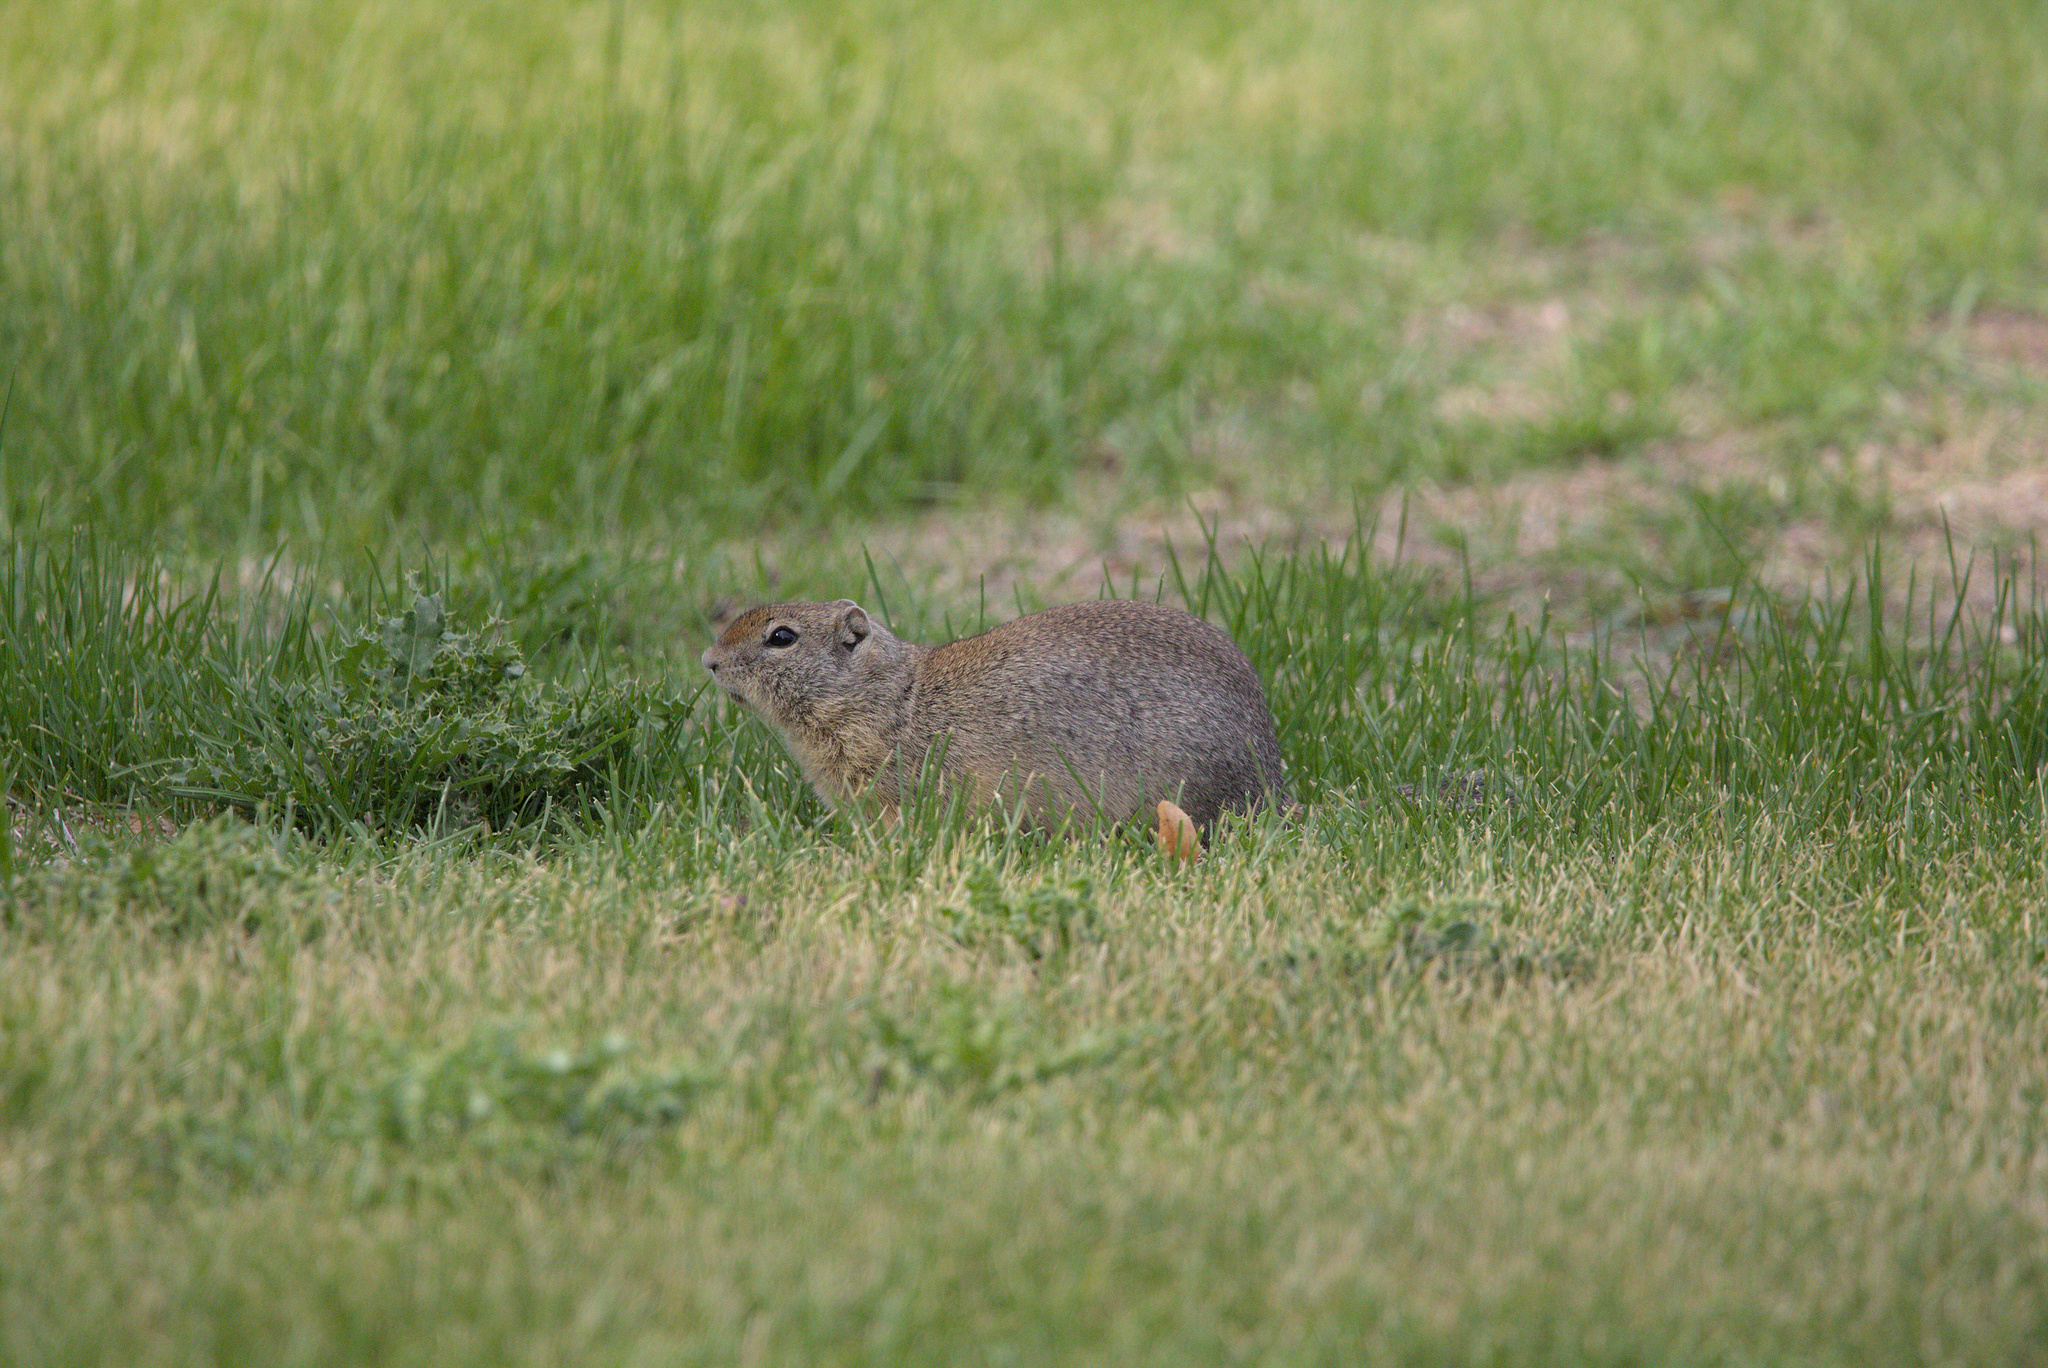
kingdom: Animalia
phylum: Chordata
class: Mammalia
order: Rodentia
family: Sciuridae
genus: Urocitellus
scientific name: Urocitellus beldingi
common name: Belding's ground squirrel
